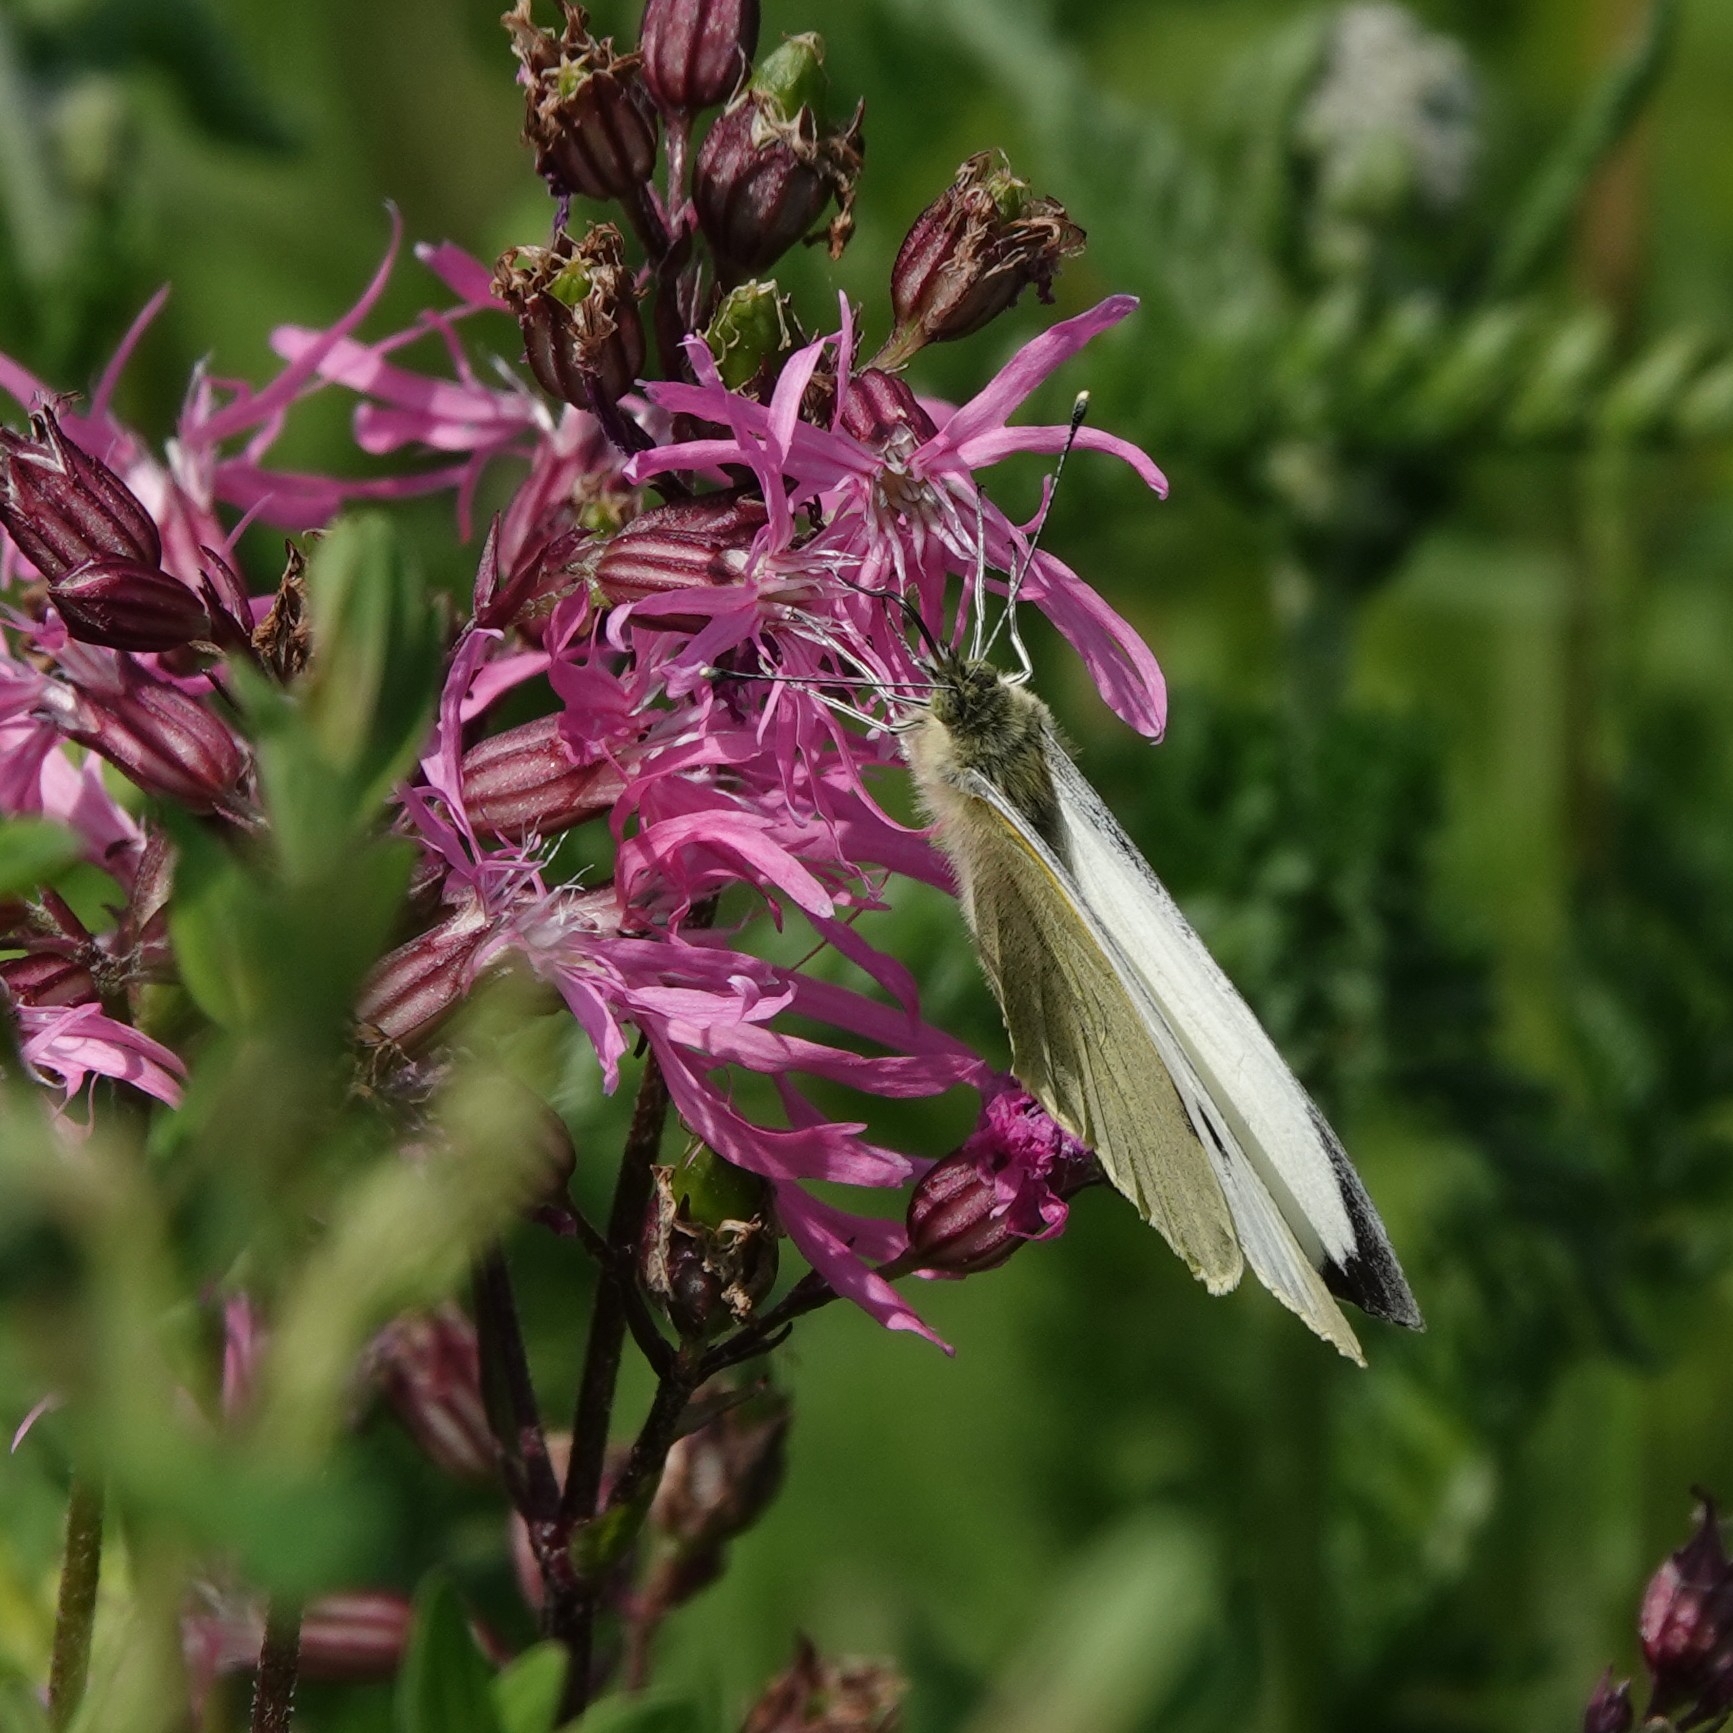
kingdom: Animalia
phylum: Arthropoda
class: Insecta
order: Lepidoptera
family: Pieridae
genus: Pieris
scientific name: Pieris brassicae
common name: Large white
